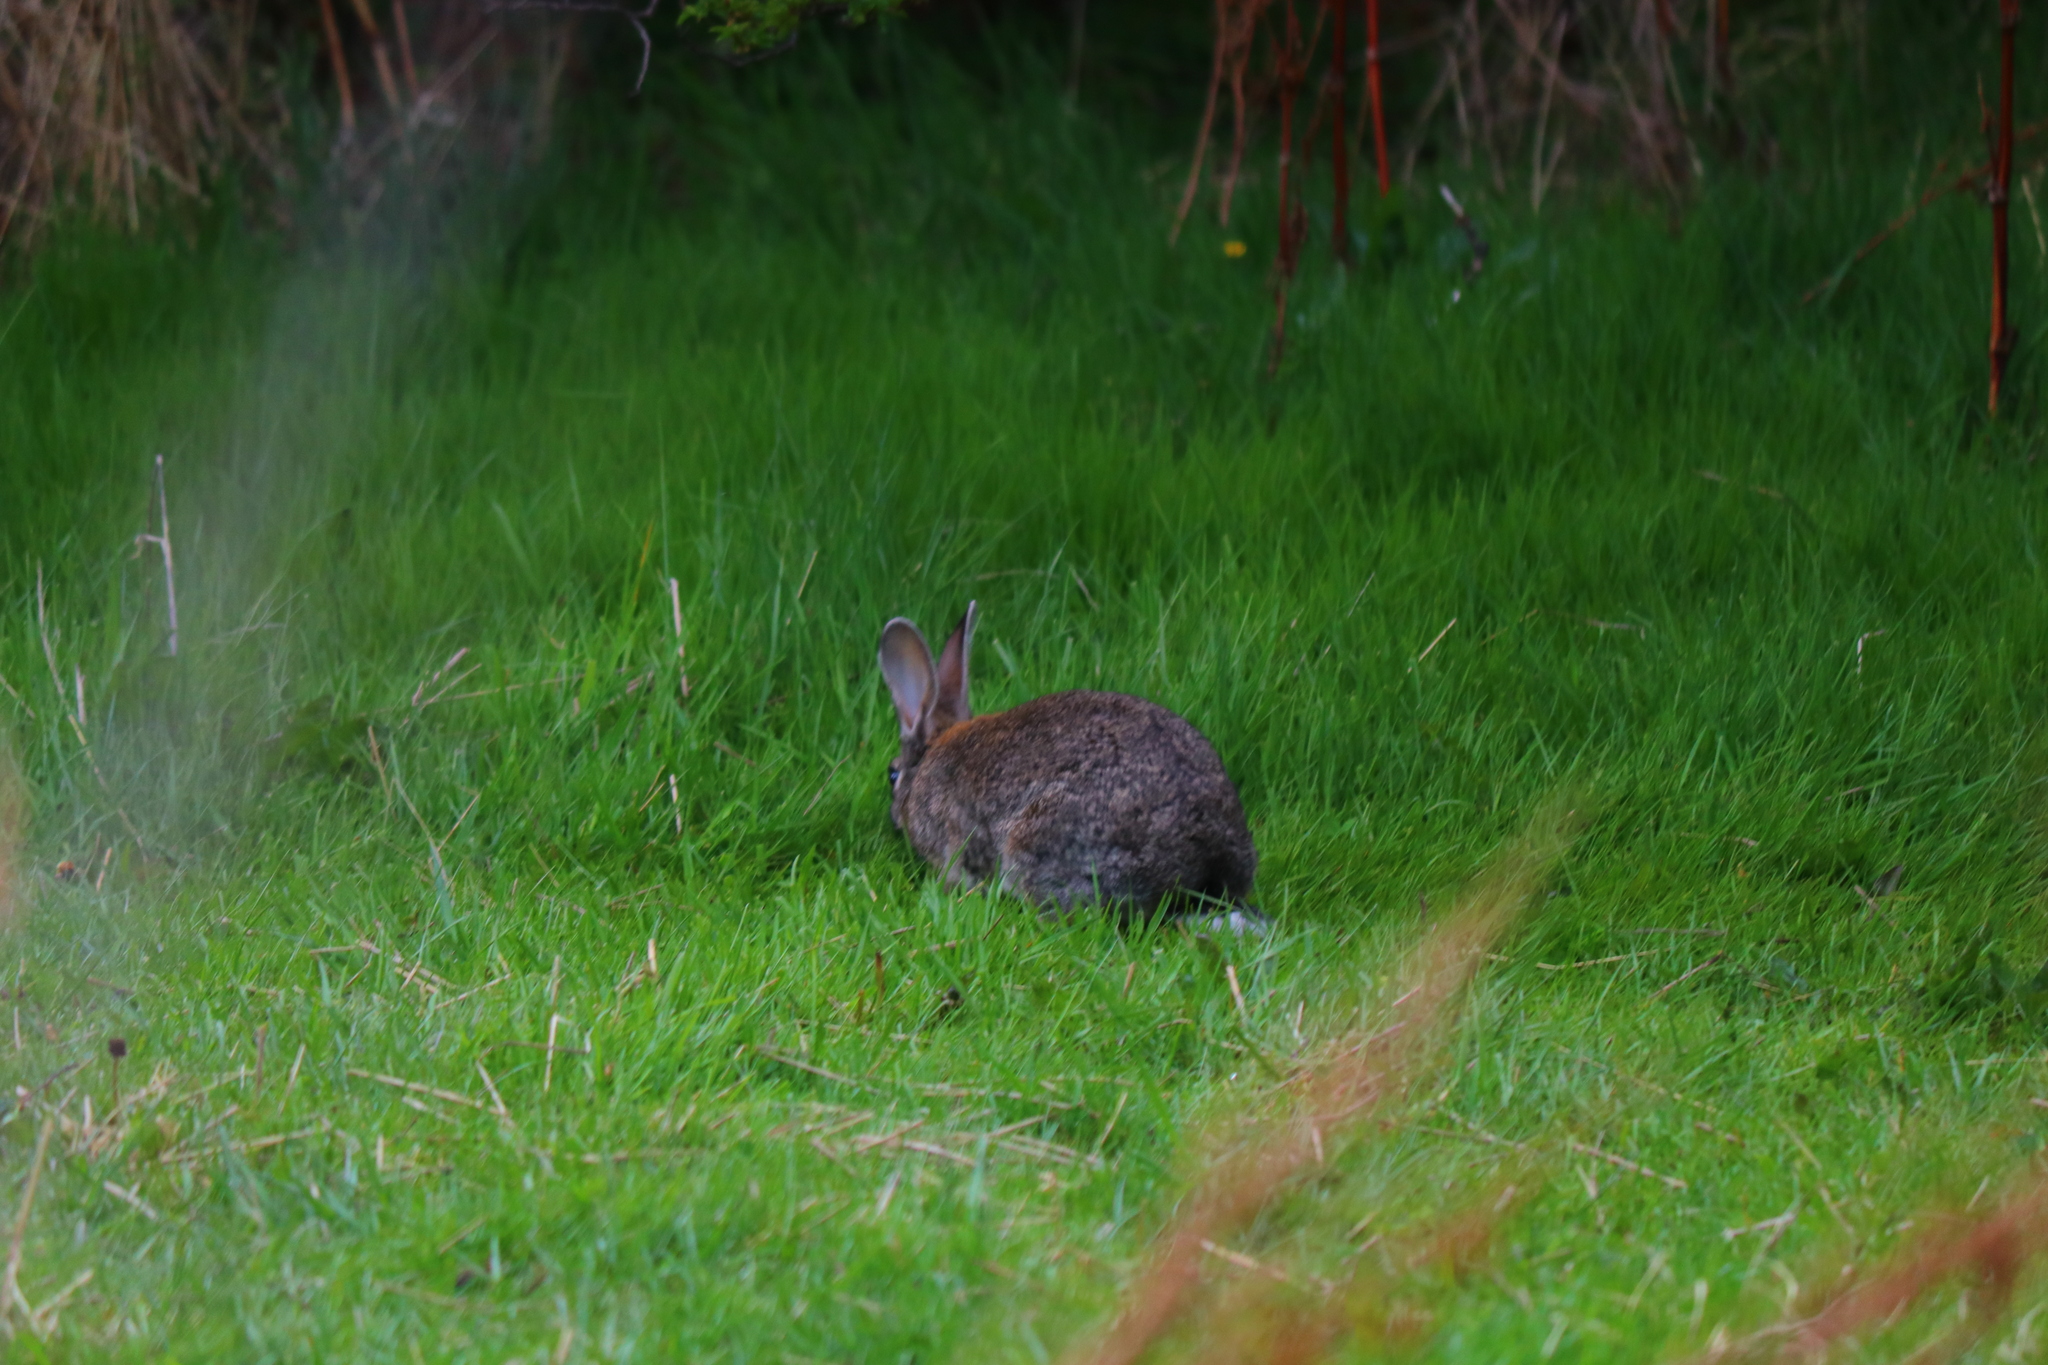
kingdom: Animalia
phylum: Chordata
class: Mammalia
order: Lagomorpha
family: Leporidae
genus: Oryctolagus
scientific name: Oryctolagus cuniculus
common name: European rabbit
